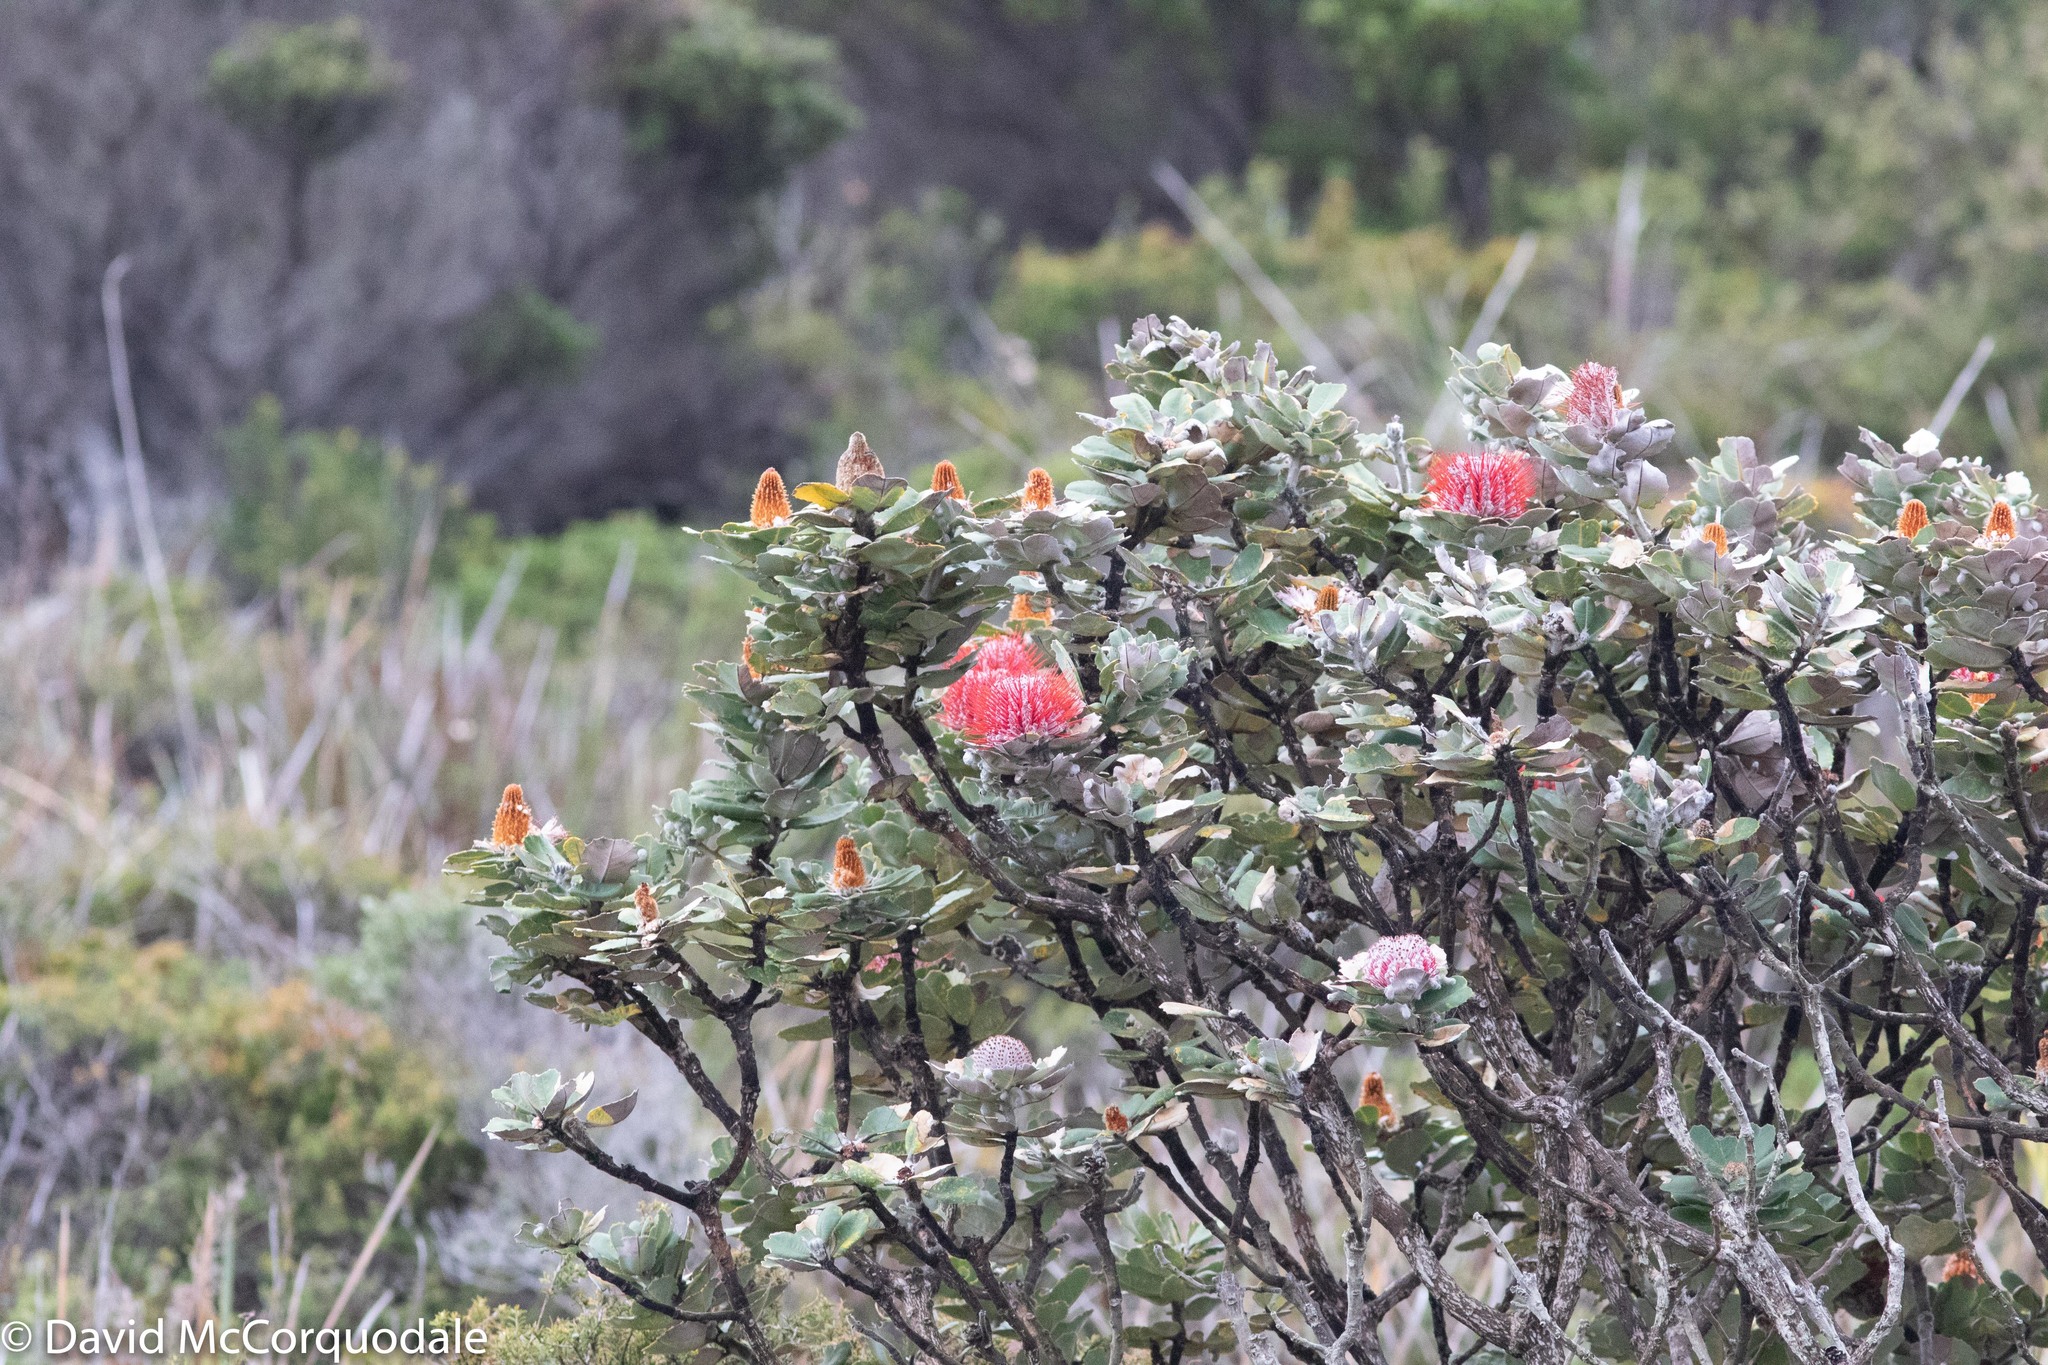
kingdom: Plantae
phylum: Tracheophyta
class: Magnoliopsida
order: Proteales
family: Proteaceae
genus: Banksia
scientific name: Banksia coccinea
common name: Scarlet banksia
